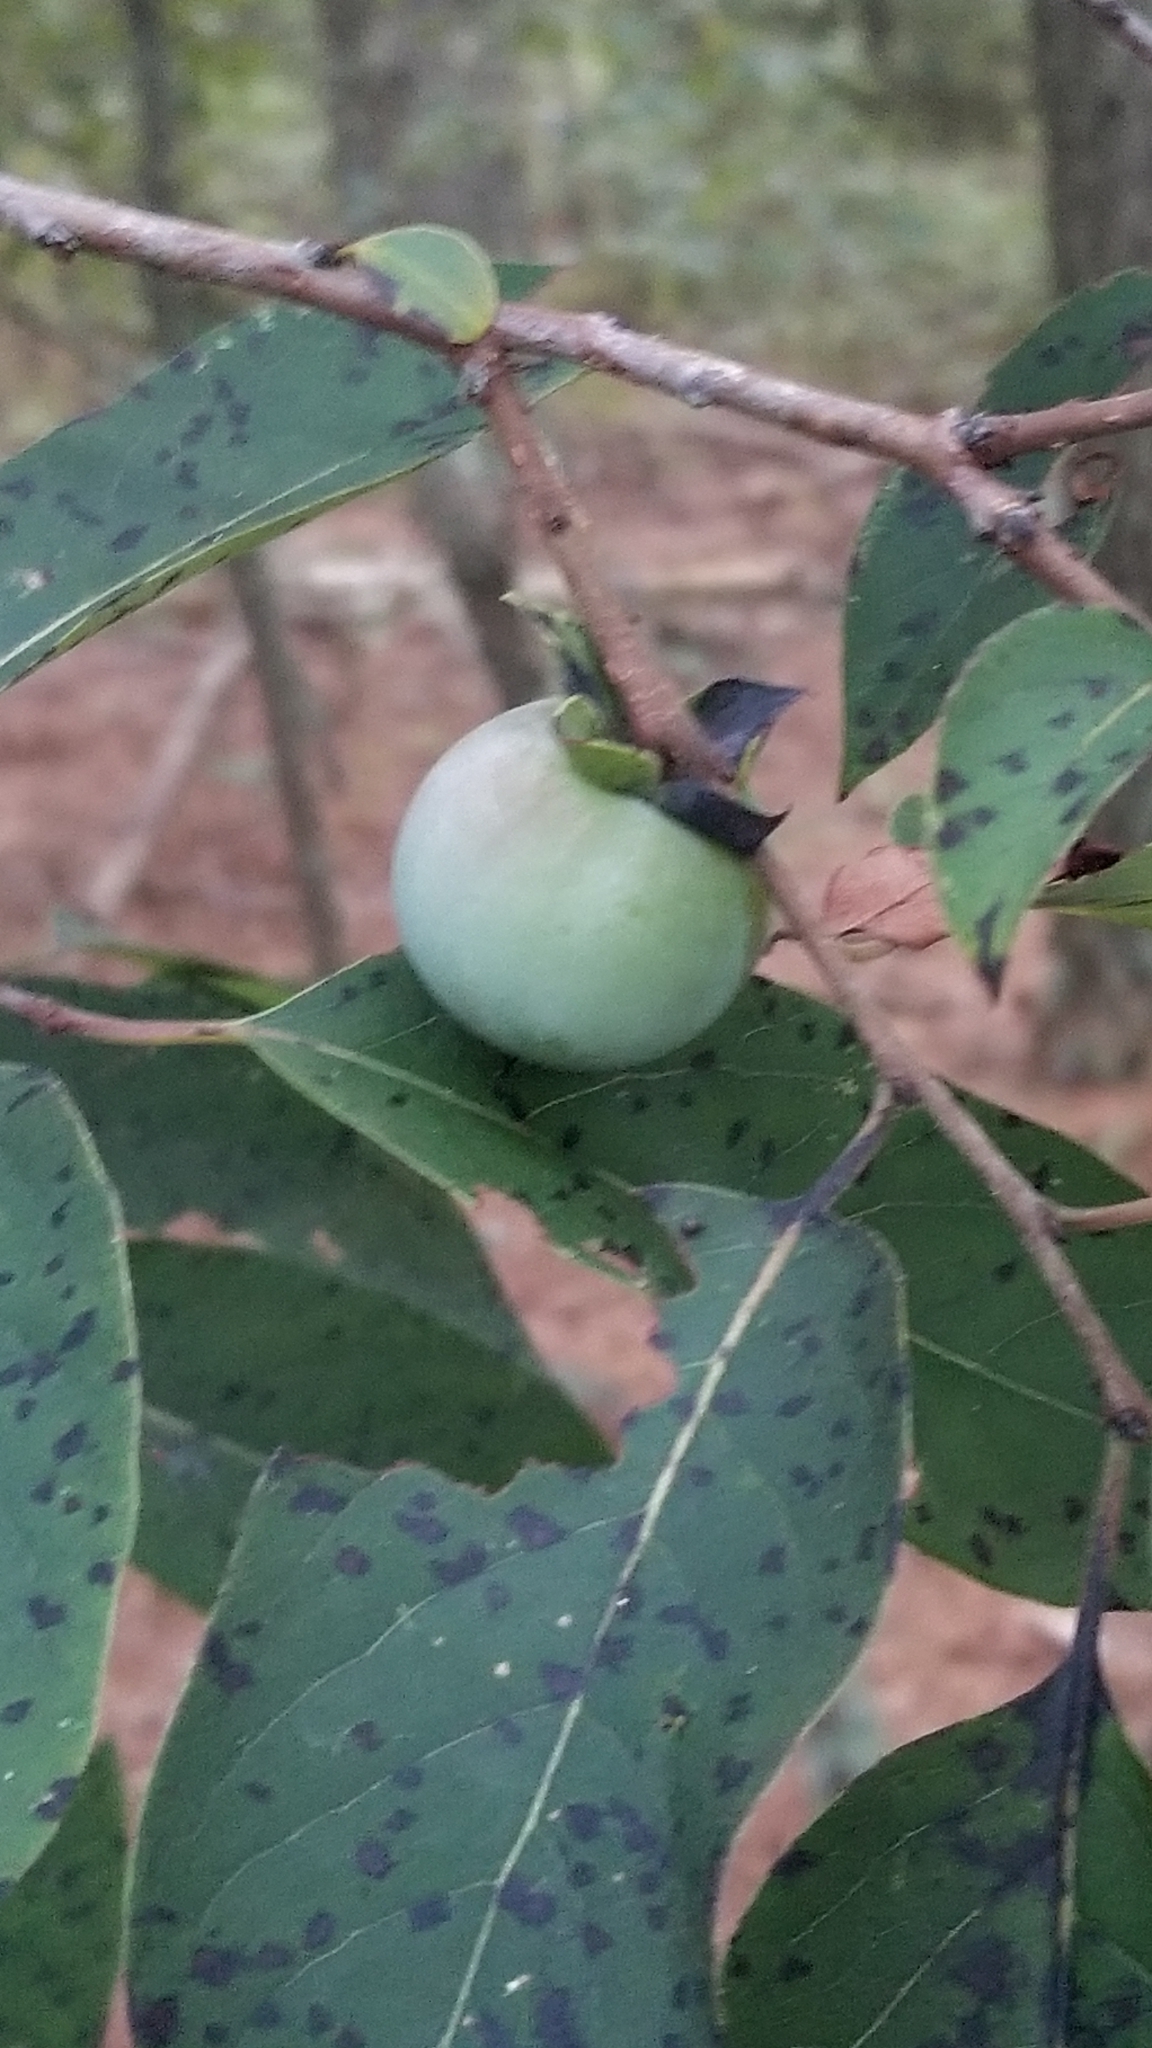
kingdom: Plantae
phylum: Tracheophyta
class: Magnoliopsida
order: Ericales
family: Ebenaceae
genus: Diospyros
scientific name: Diospyros virginiana
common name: Persimmon
